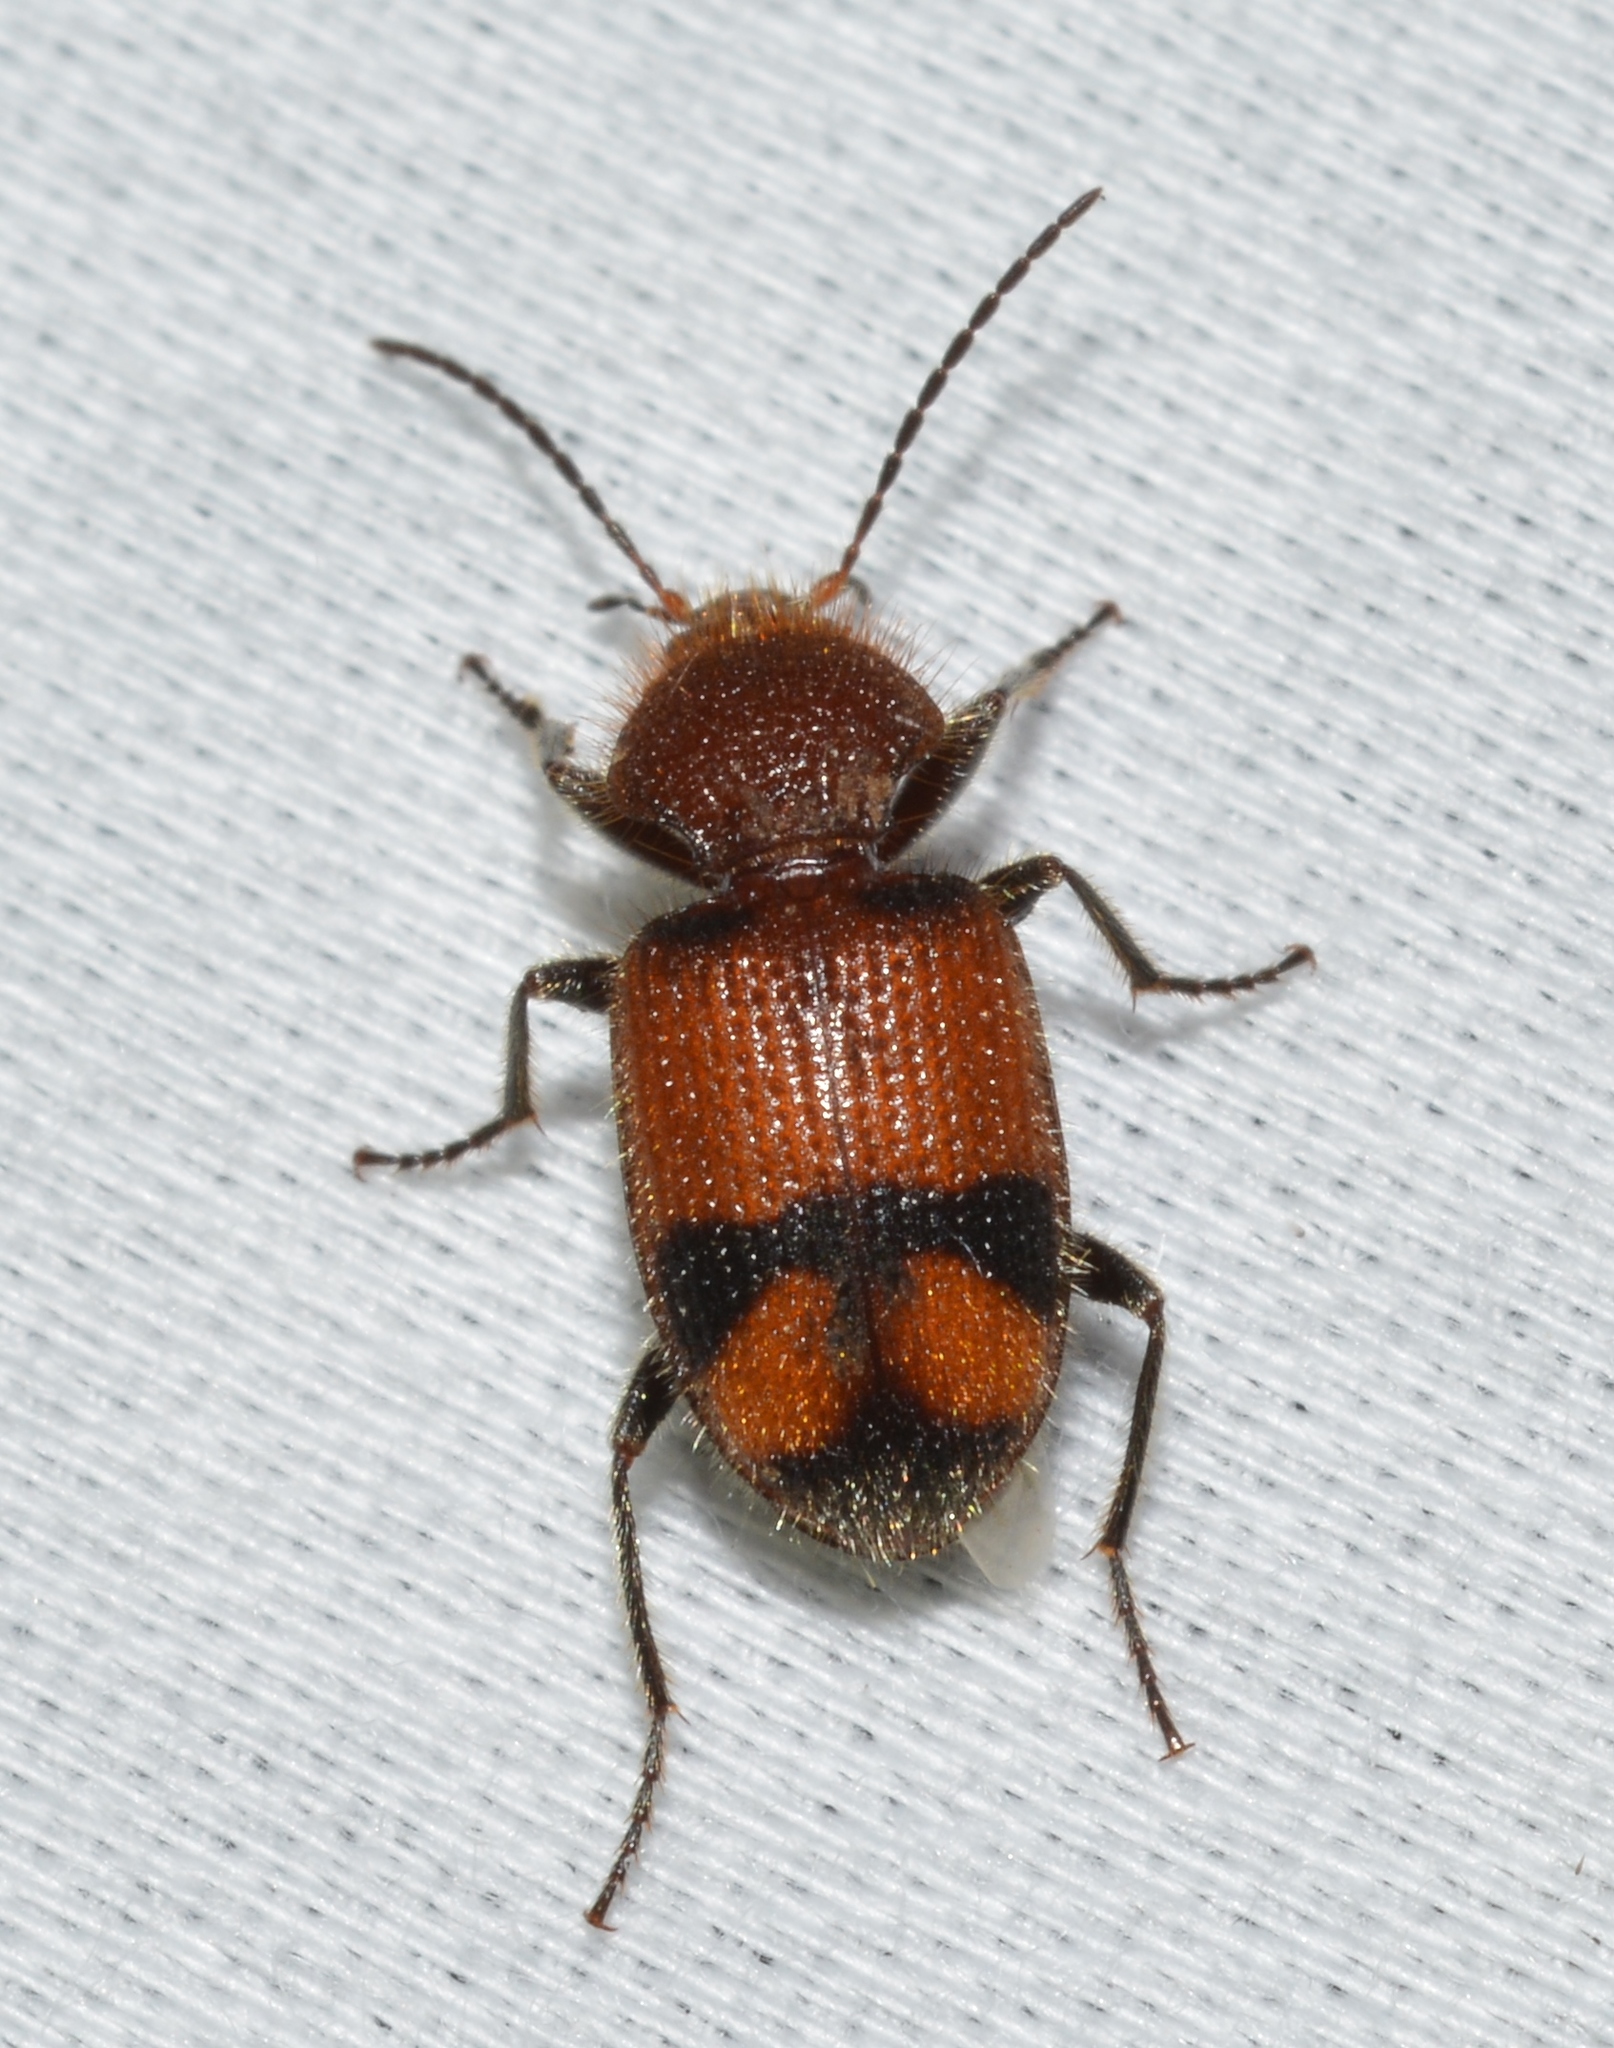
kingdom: Animalia
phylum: Arthropoda
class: Insecta
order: Coleoptera
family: Carabidae
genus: Panagaeus
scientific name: Panagaeus fasciatus
